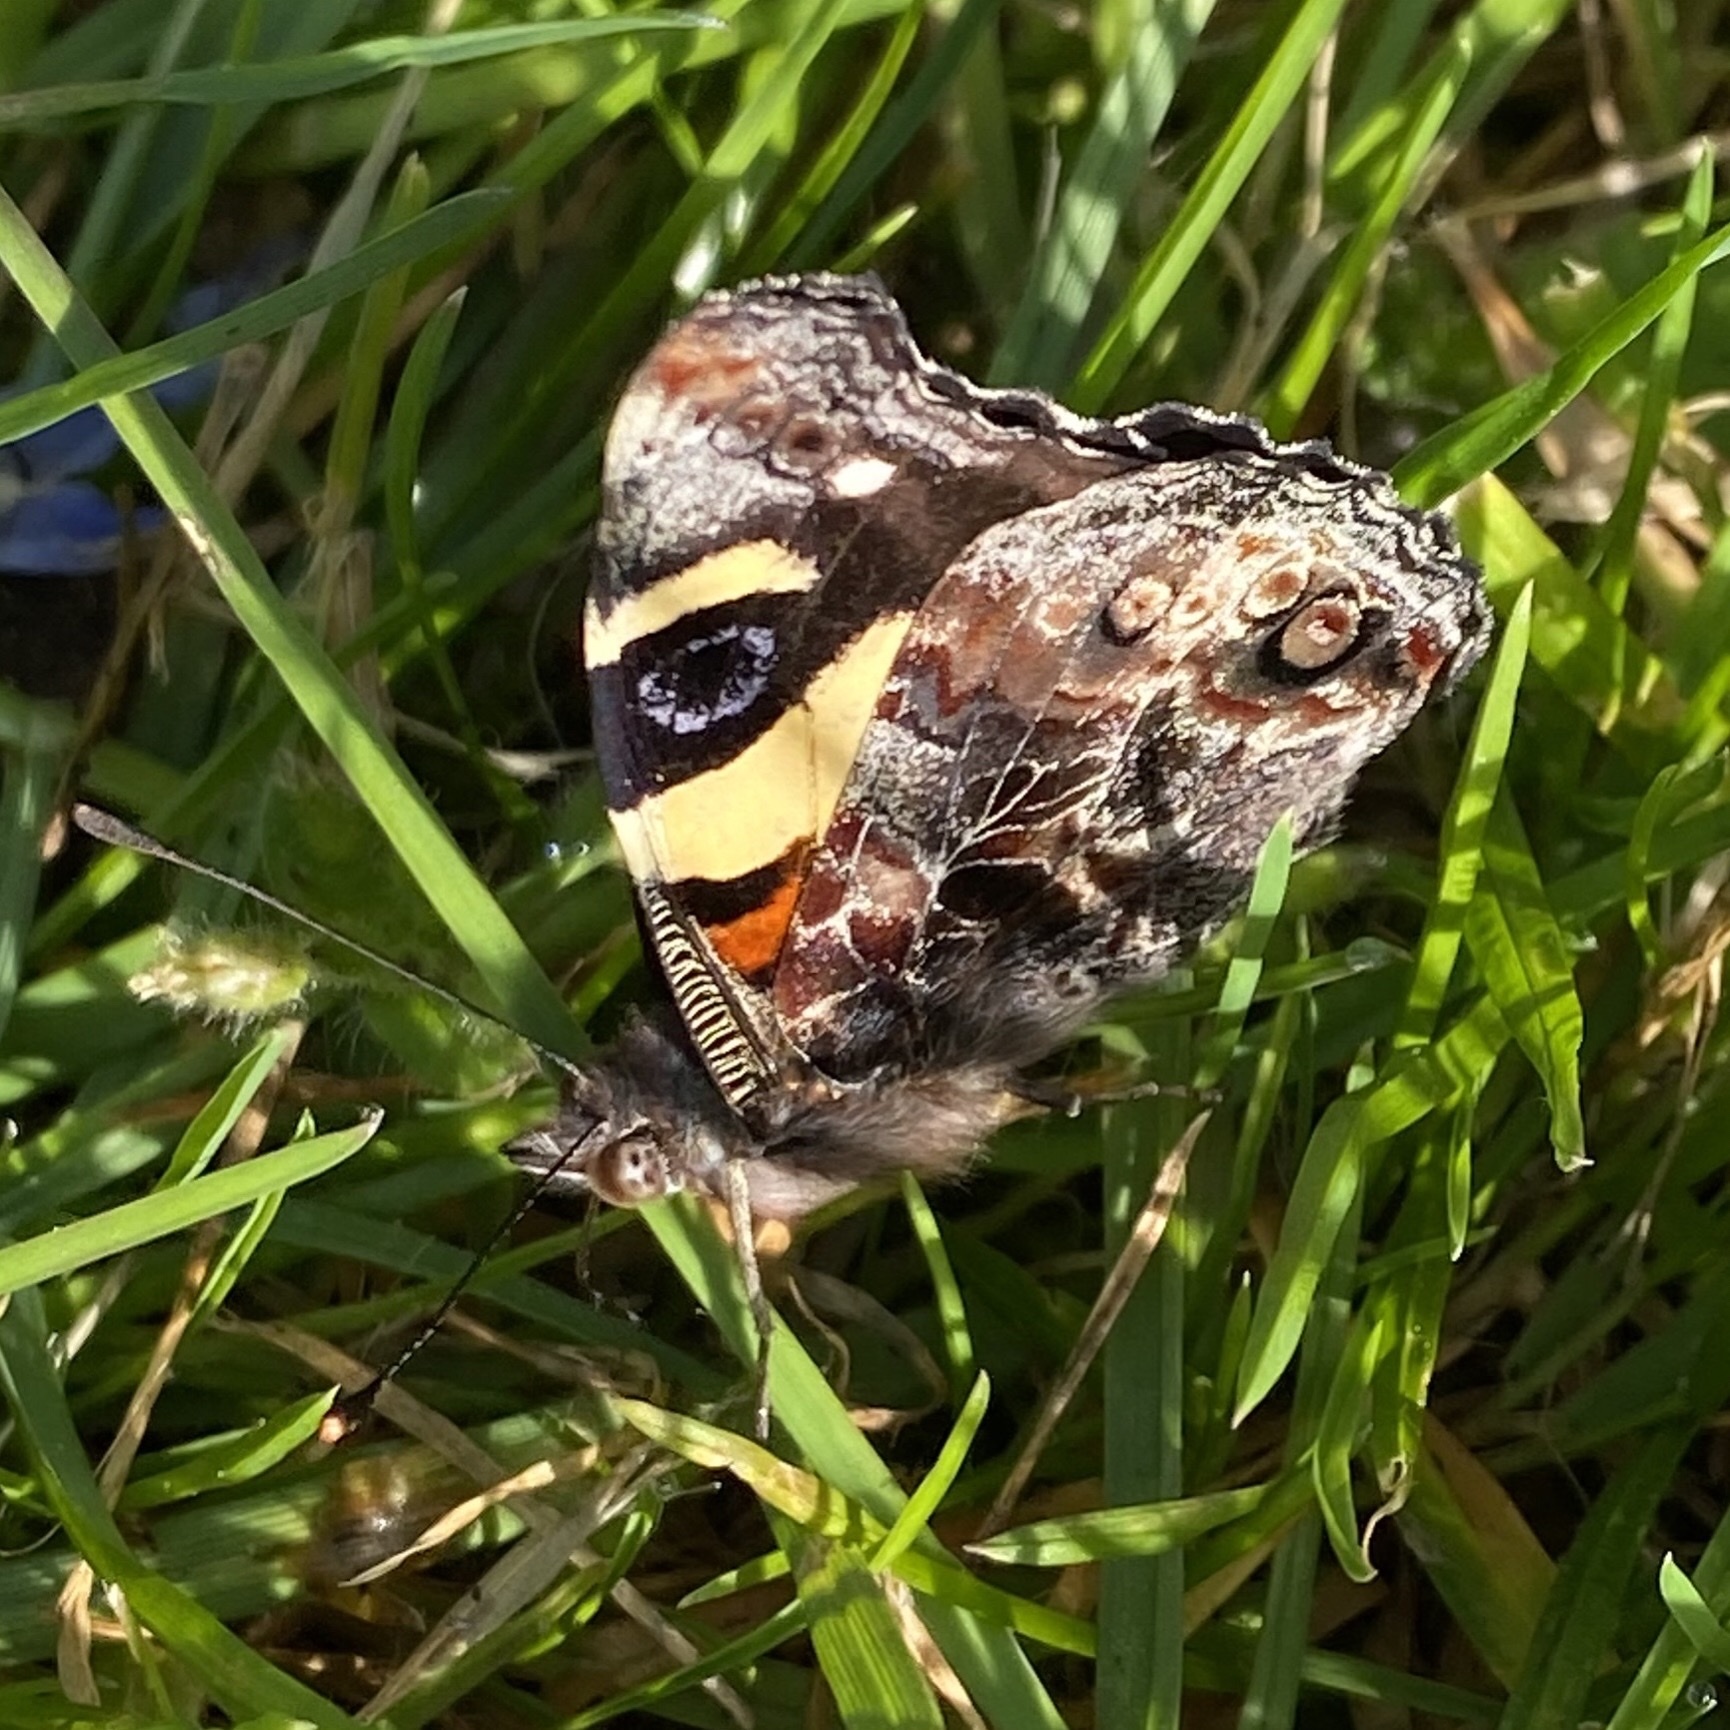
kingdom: Animalia
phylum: Arthropoda
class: Insecta
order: Lepidoptera
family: Nymphalidae
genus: Vanessa
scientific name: Vanessa itea
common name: Yellow admiral
